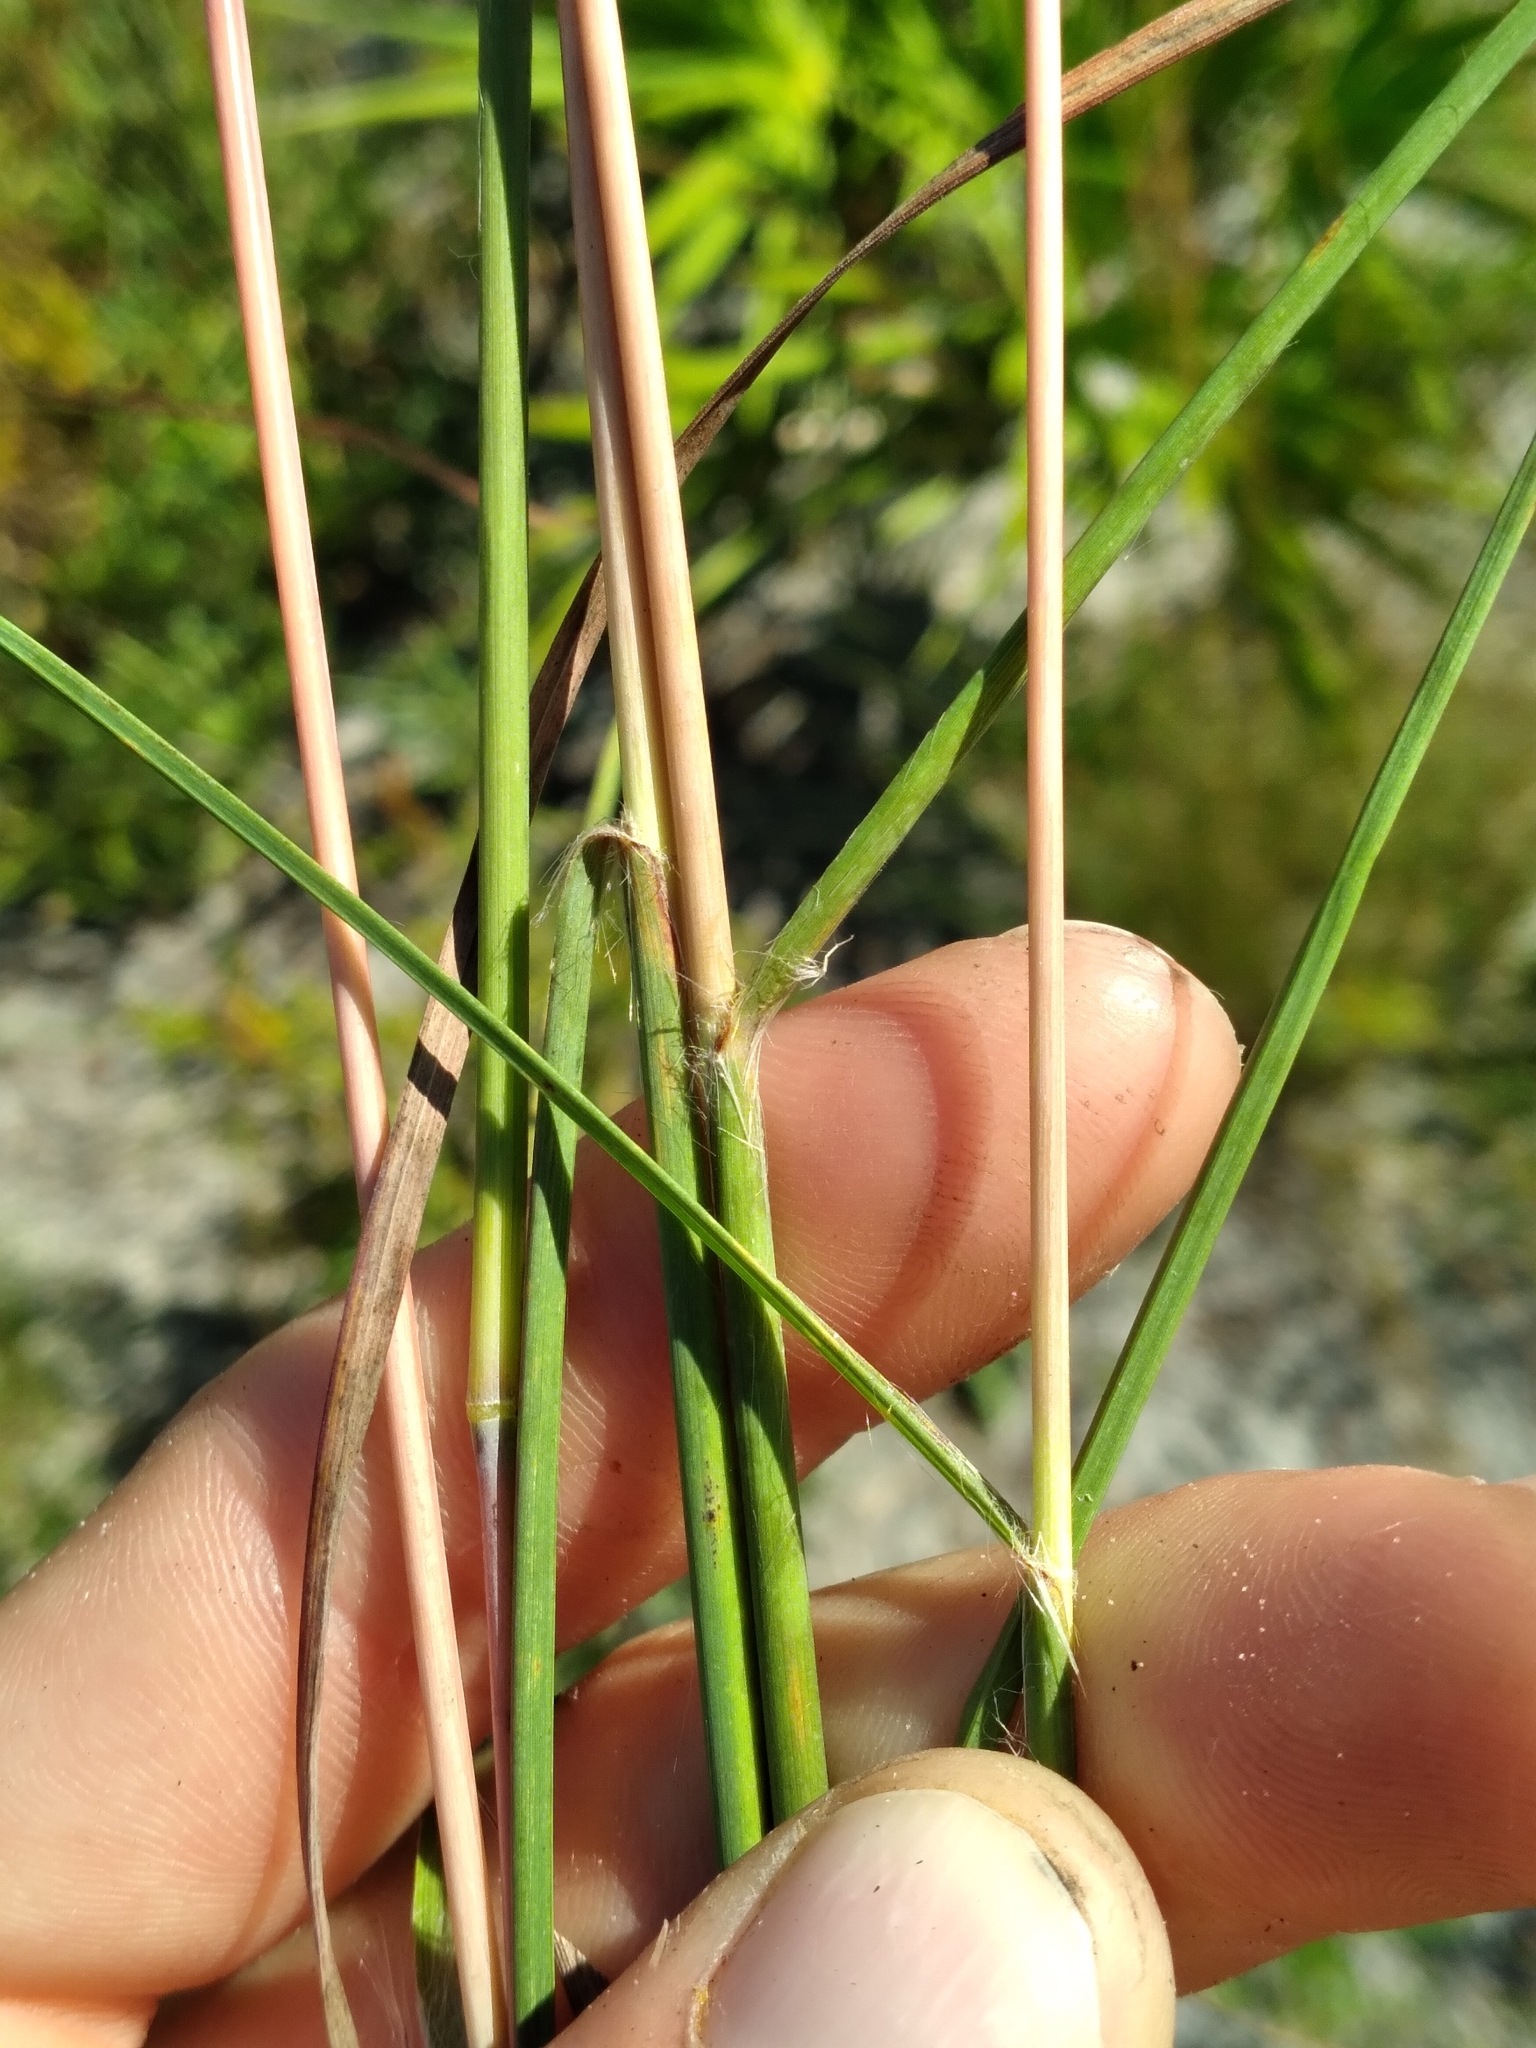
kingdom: Plantae
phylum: Tracheophyta
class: Liliopsida
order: Poales
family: Poaceae
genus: Andropogon
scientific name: Andropogon gyrans
